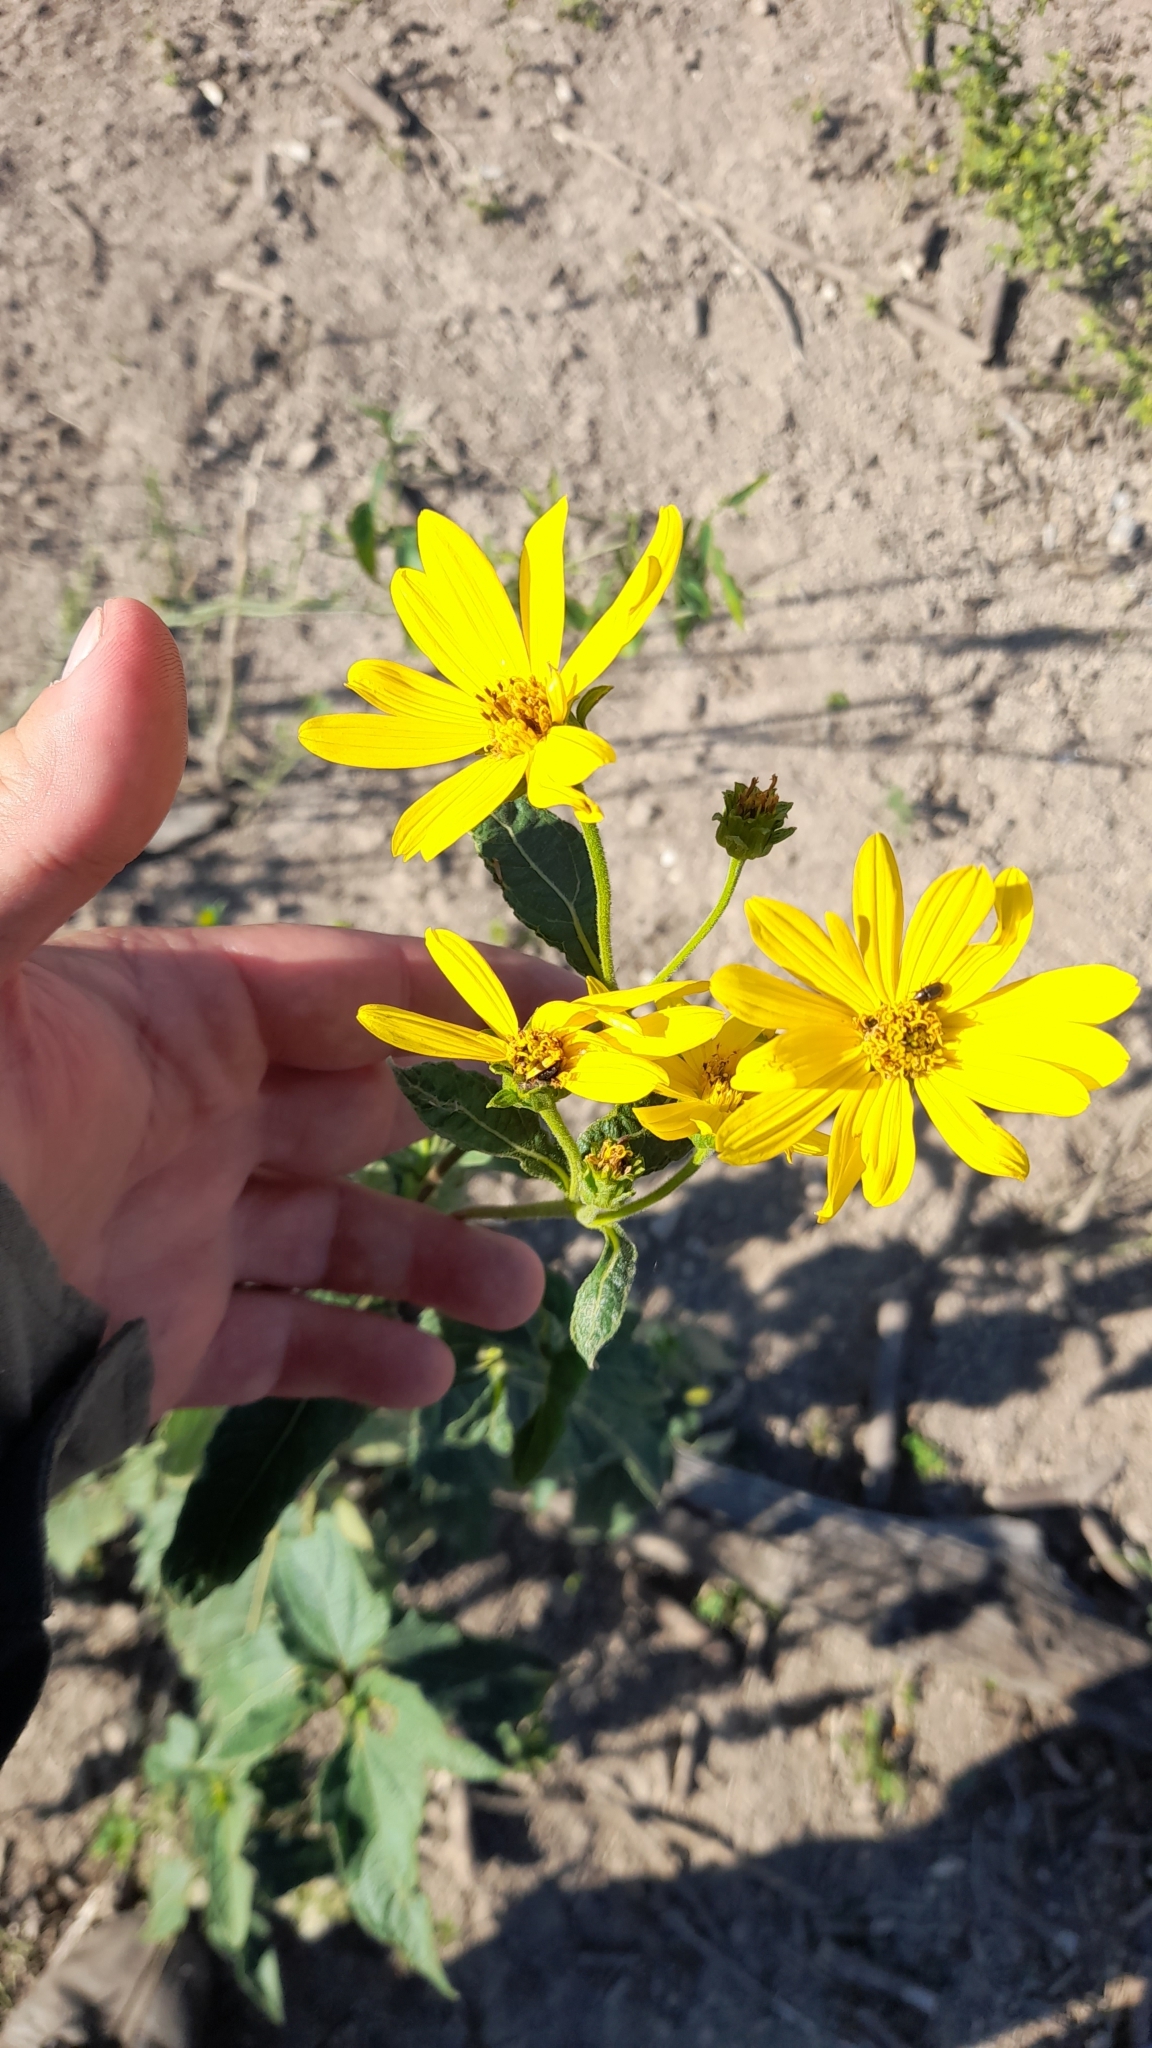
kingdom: Plantae
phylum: Tracheophyta
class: Magnoliopsida
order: Asterales
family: Asteraceae
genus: Wedelia
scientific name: Wedelia silphioides
